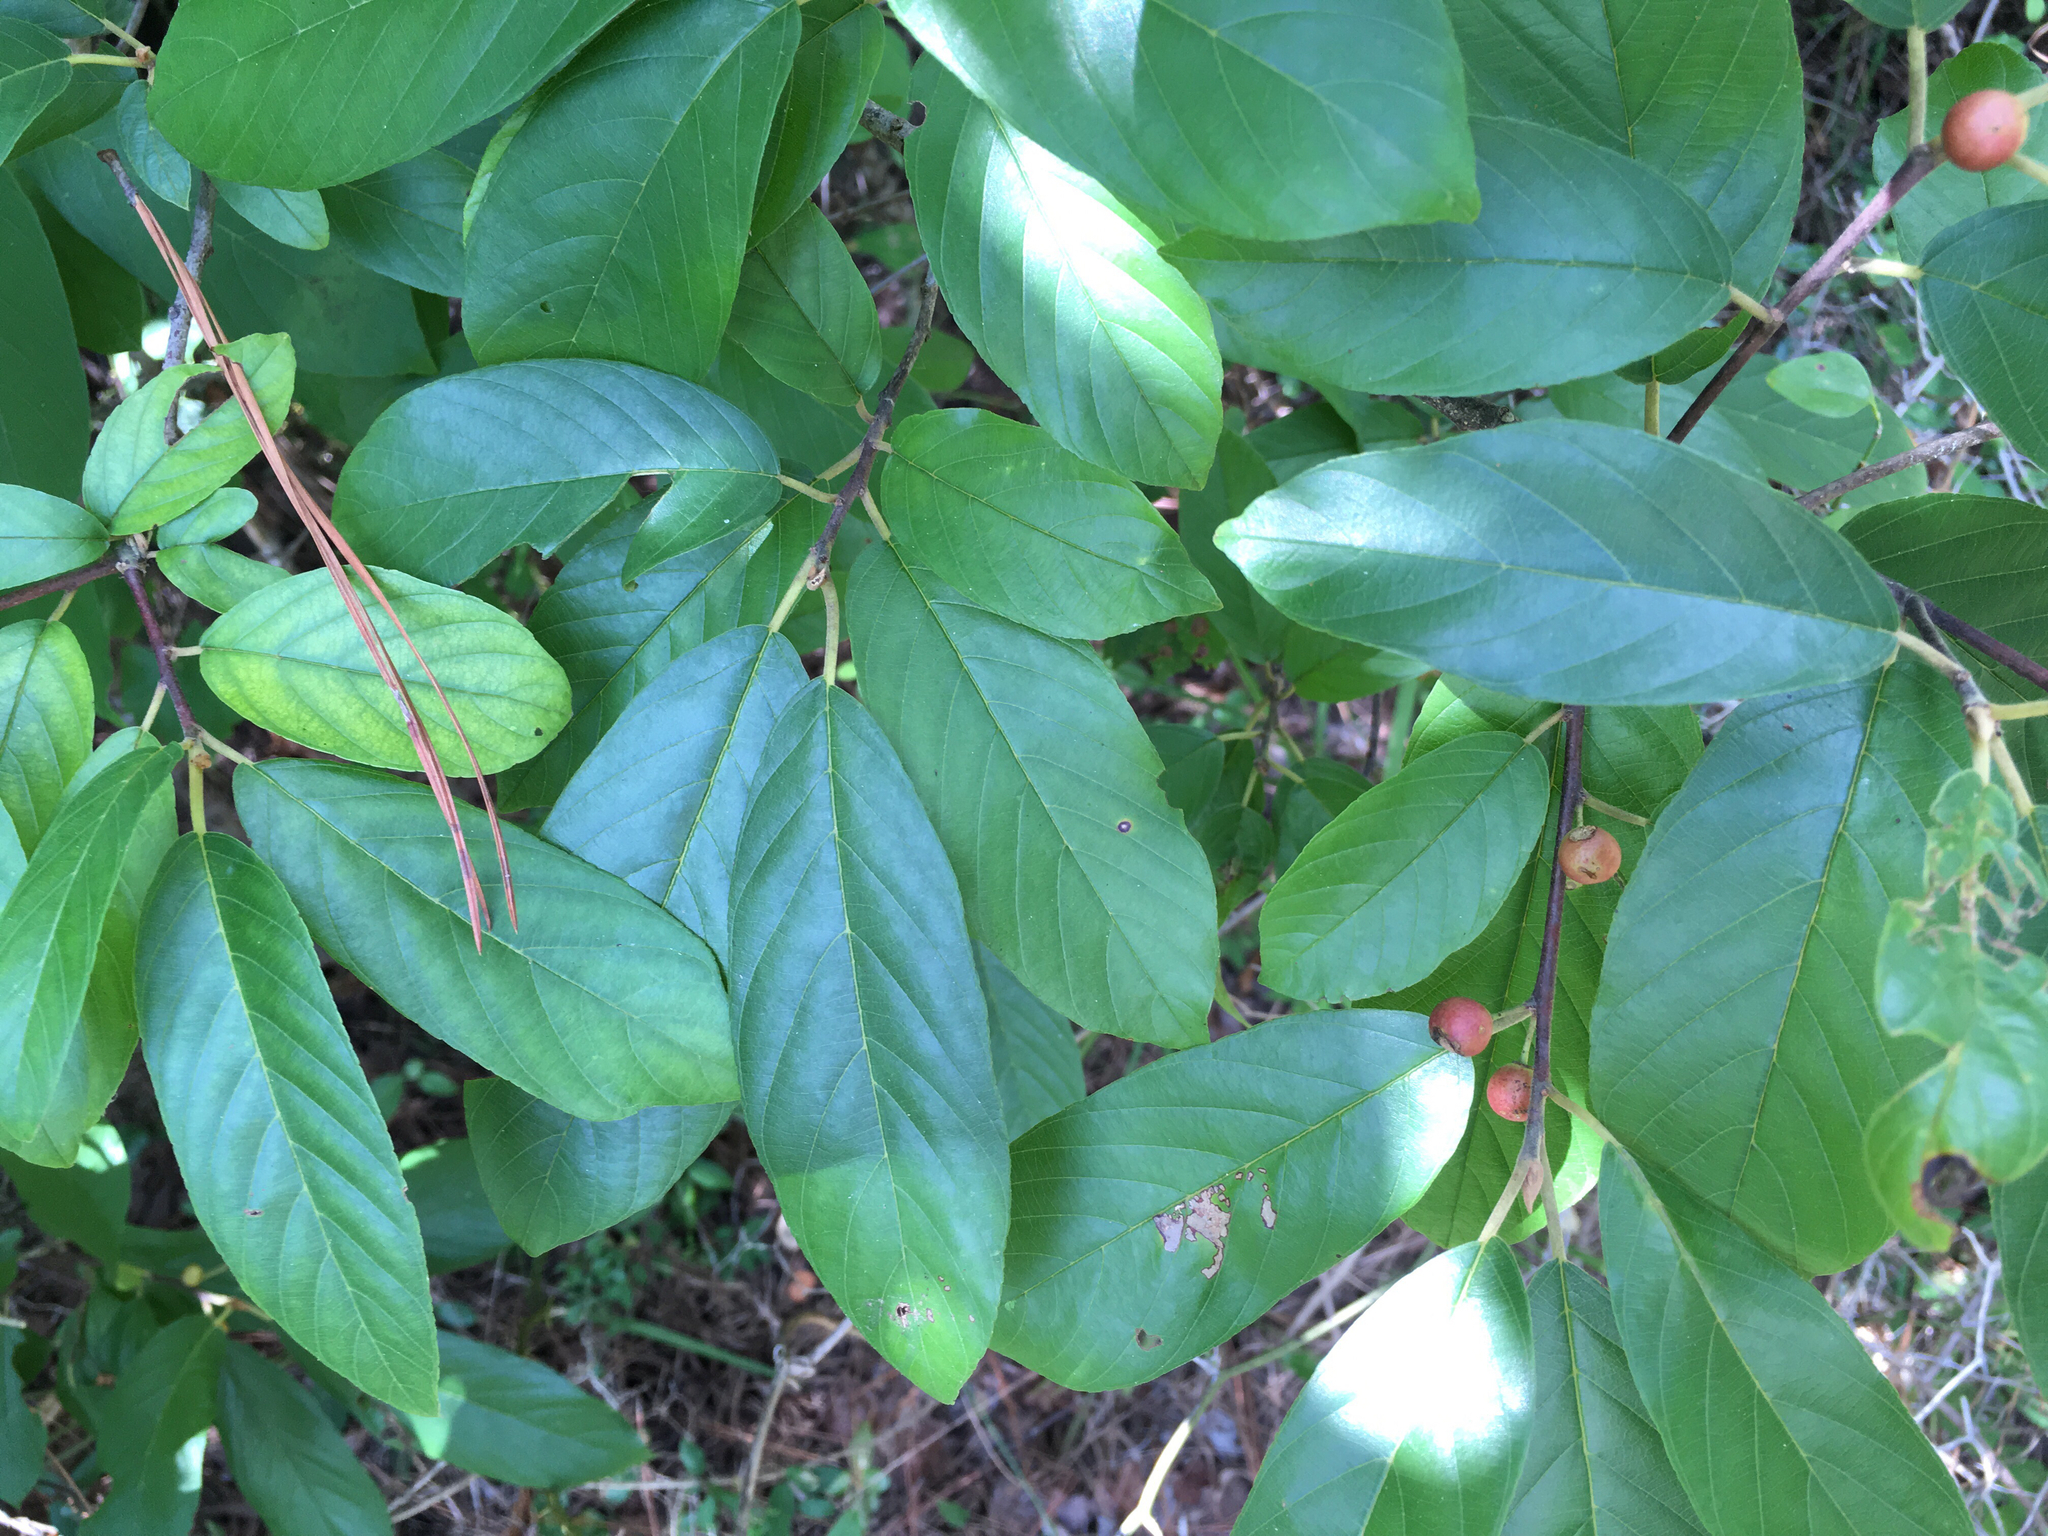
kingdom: Plantae
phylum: Tracheophyta
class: Magnoliopsida
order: Rosales
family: Rhamnaceae
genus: Frangula
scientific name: Frangula caroliniana
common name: Carolina buckthorn
